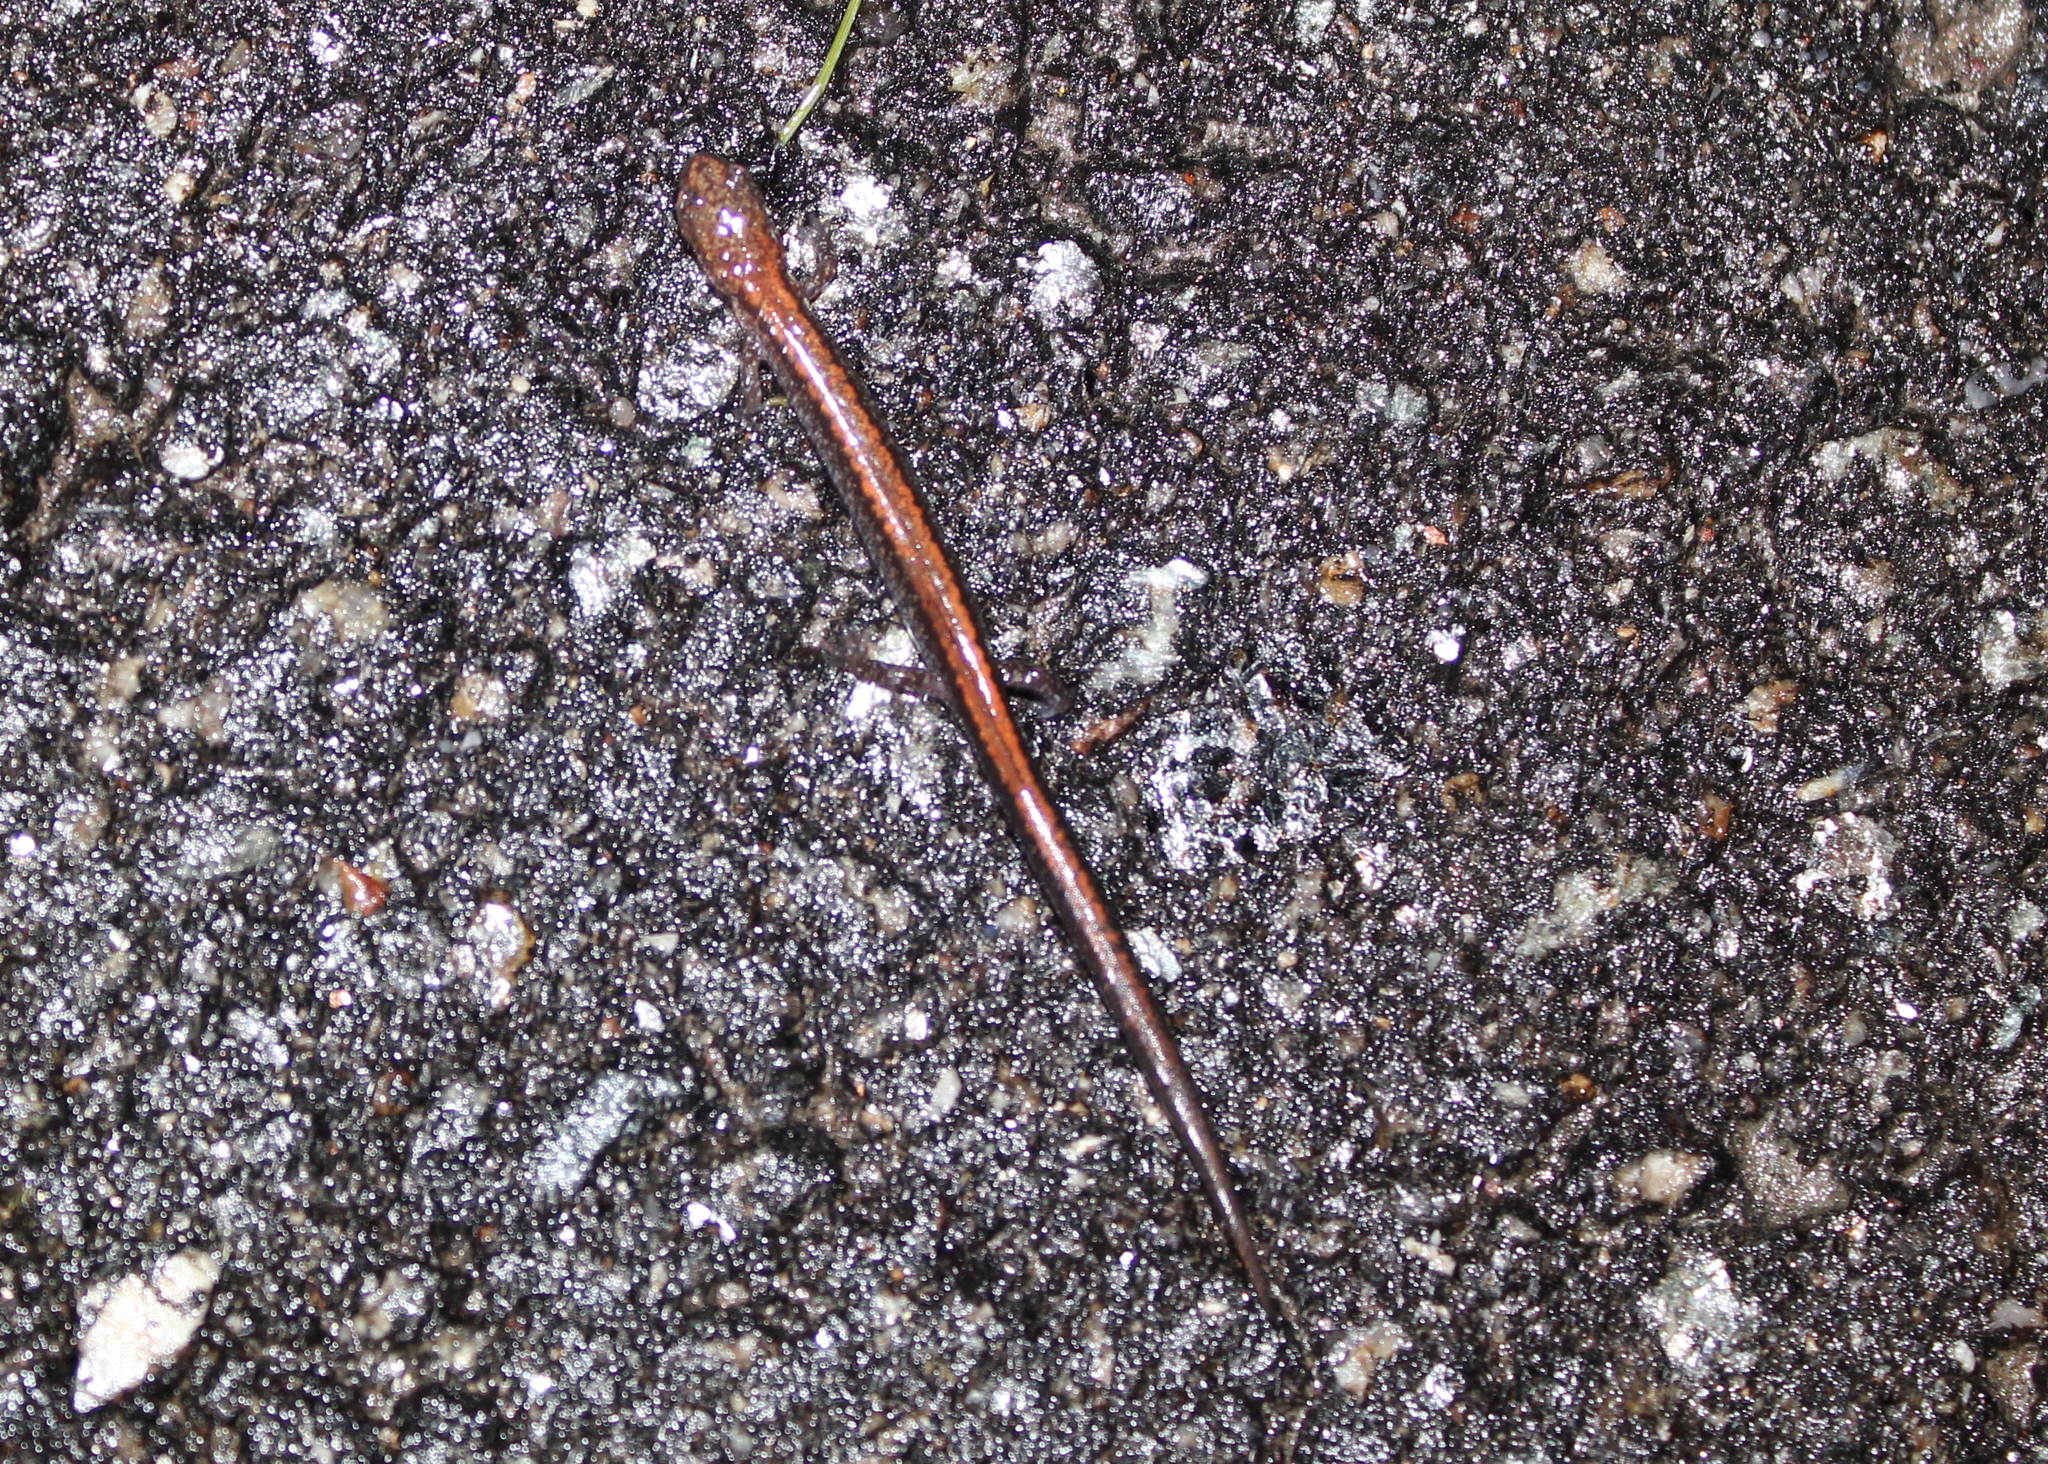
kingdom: Animalia
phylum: Chordata
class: Amphibia
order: Caudata
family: Plethodontidae
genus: Plethodon
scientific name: Plethodon cinereus
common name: Redback salamander
